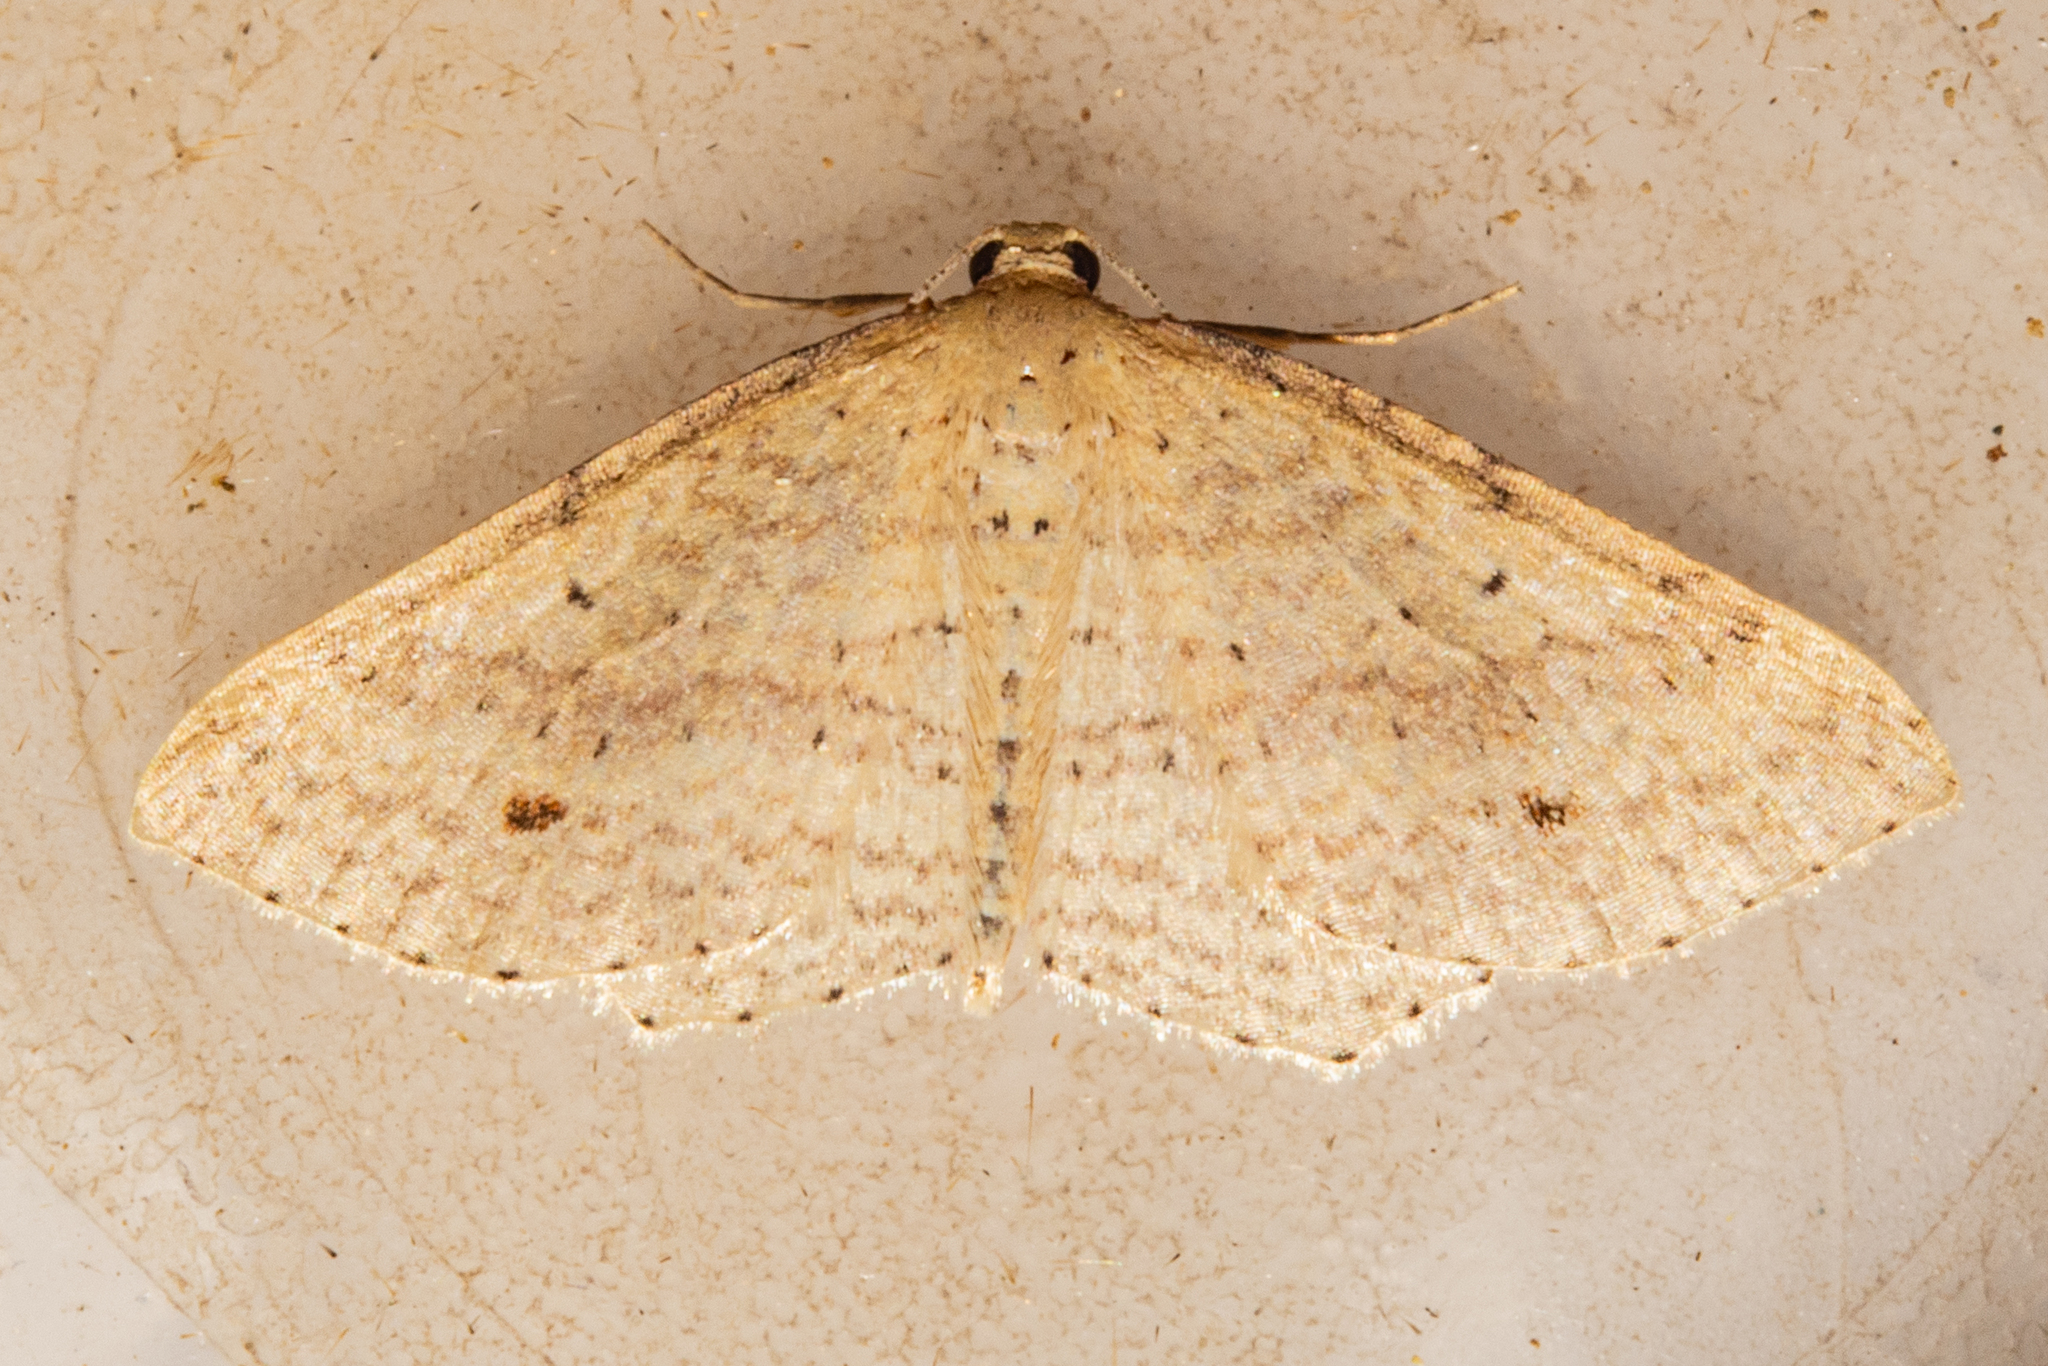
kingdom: Animalia
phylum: Arthropoda
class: Insecta
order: Lepidoptera
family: Geometridae
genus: Epicyme
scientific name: Epicyme rubropunctaria
